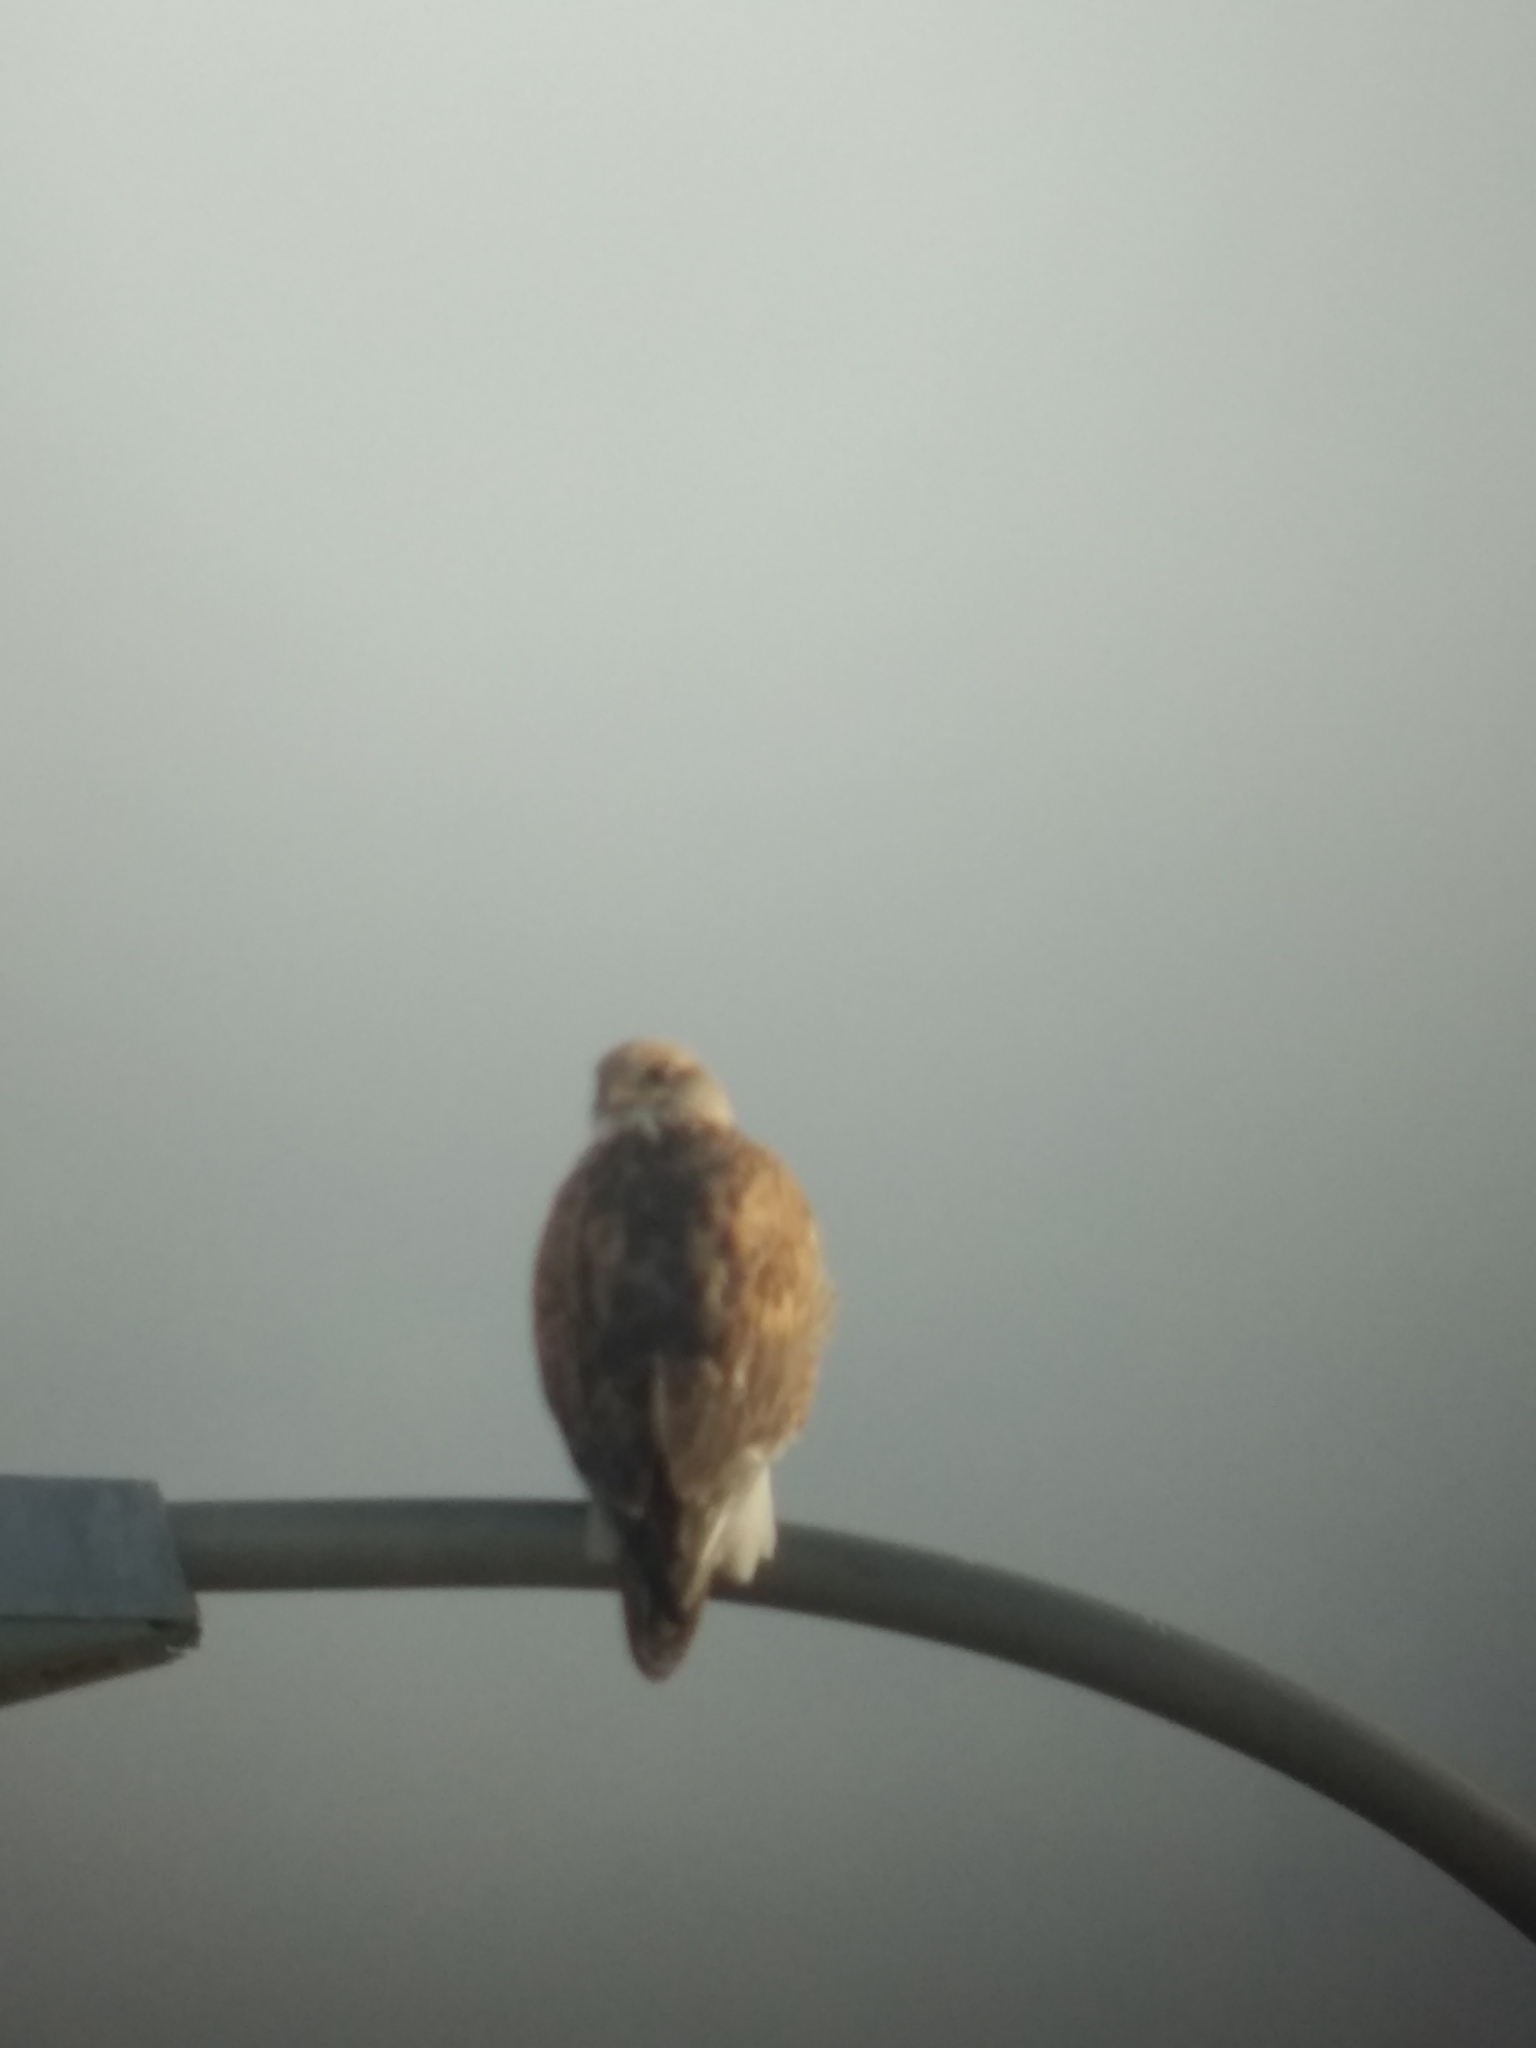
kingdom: Animalia
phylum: Chordata
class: Aves
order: Accipitriformes
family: Accipitridae
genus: Buteo
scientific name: Buteo regalis
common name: Ferruginous hawk
